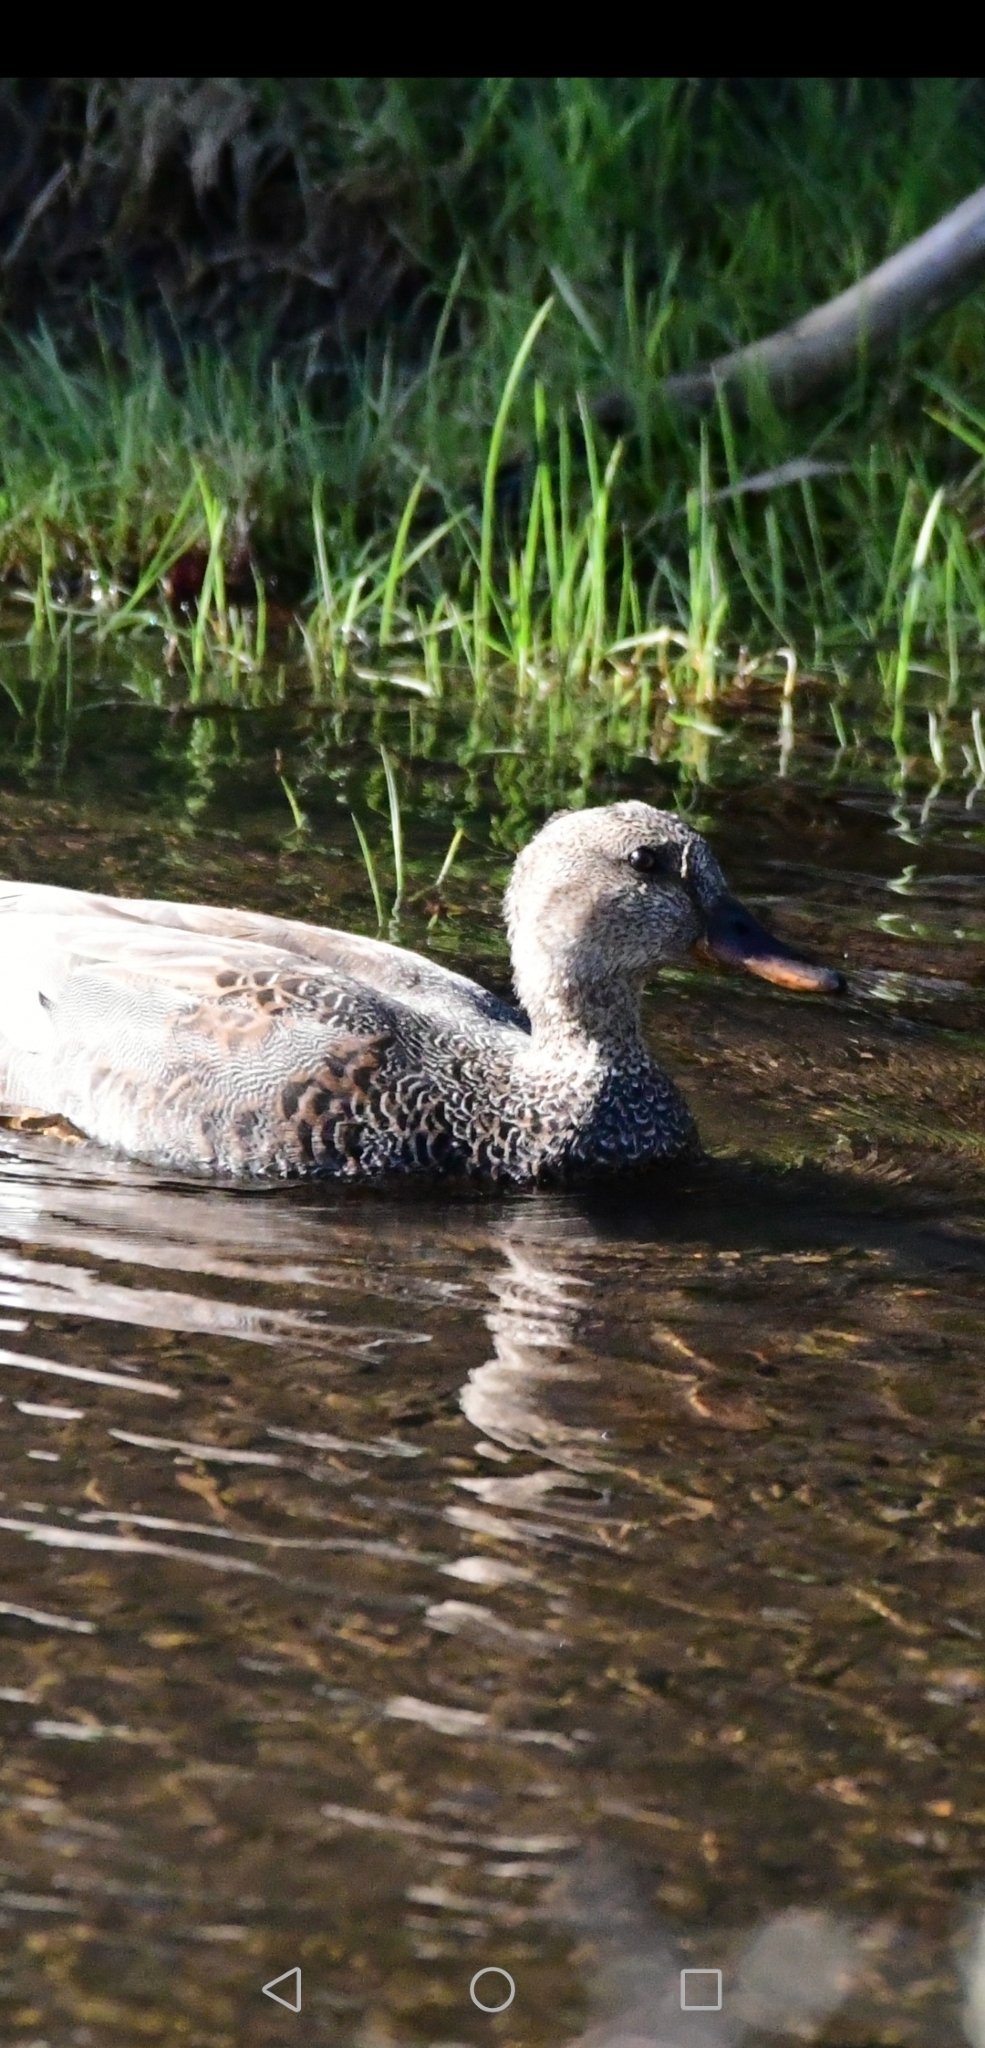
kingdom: Animalia
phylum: Chordata
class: Aves
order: Anseriformes
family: Anatidae
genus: Mareca
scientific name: Mareca strepera
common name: Gadwall
